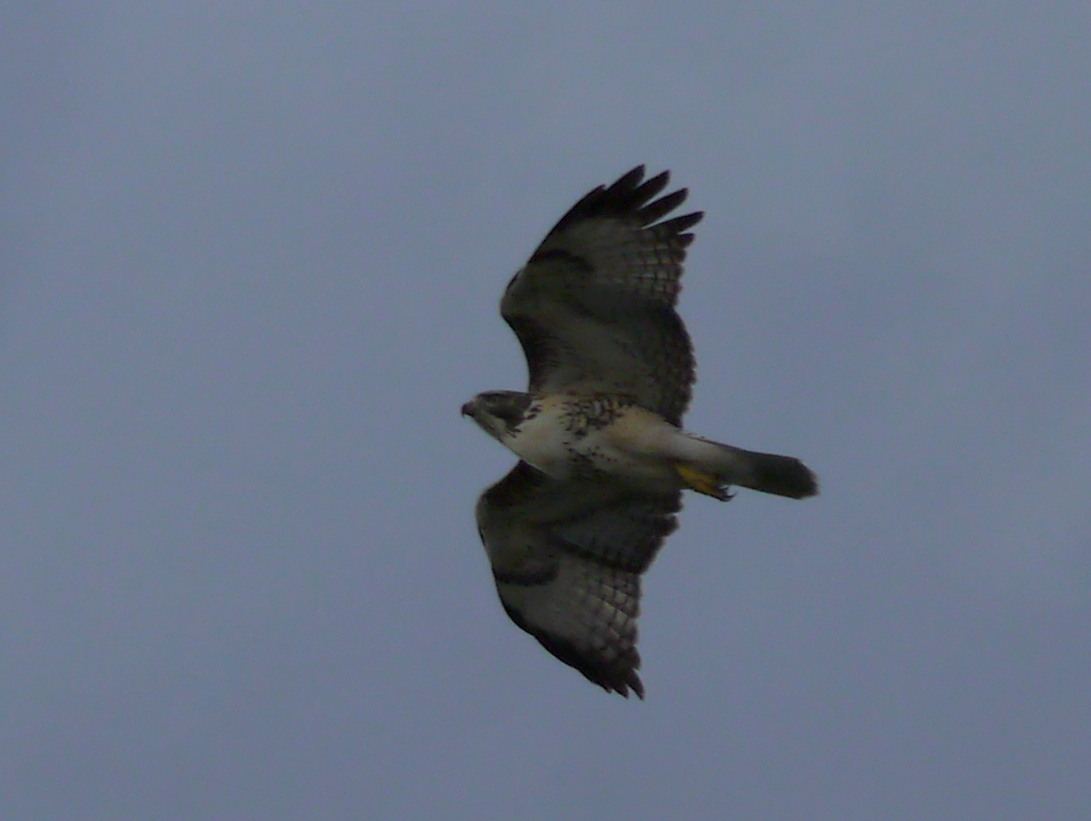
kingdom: Animalia
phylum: Chordata
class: Aves
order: Accipitriformes
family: Accipitridae
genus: Buteo
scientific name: Buteo jamaicensis
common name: Red-tailed hawk
